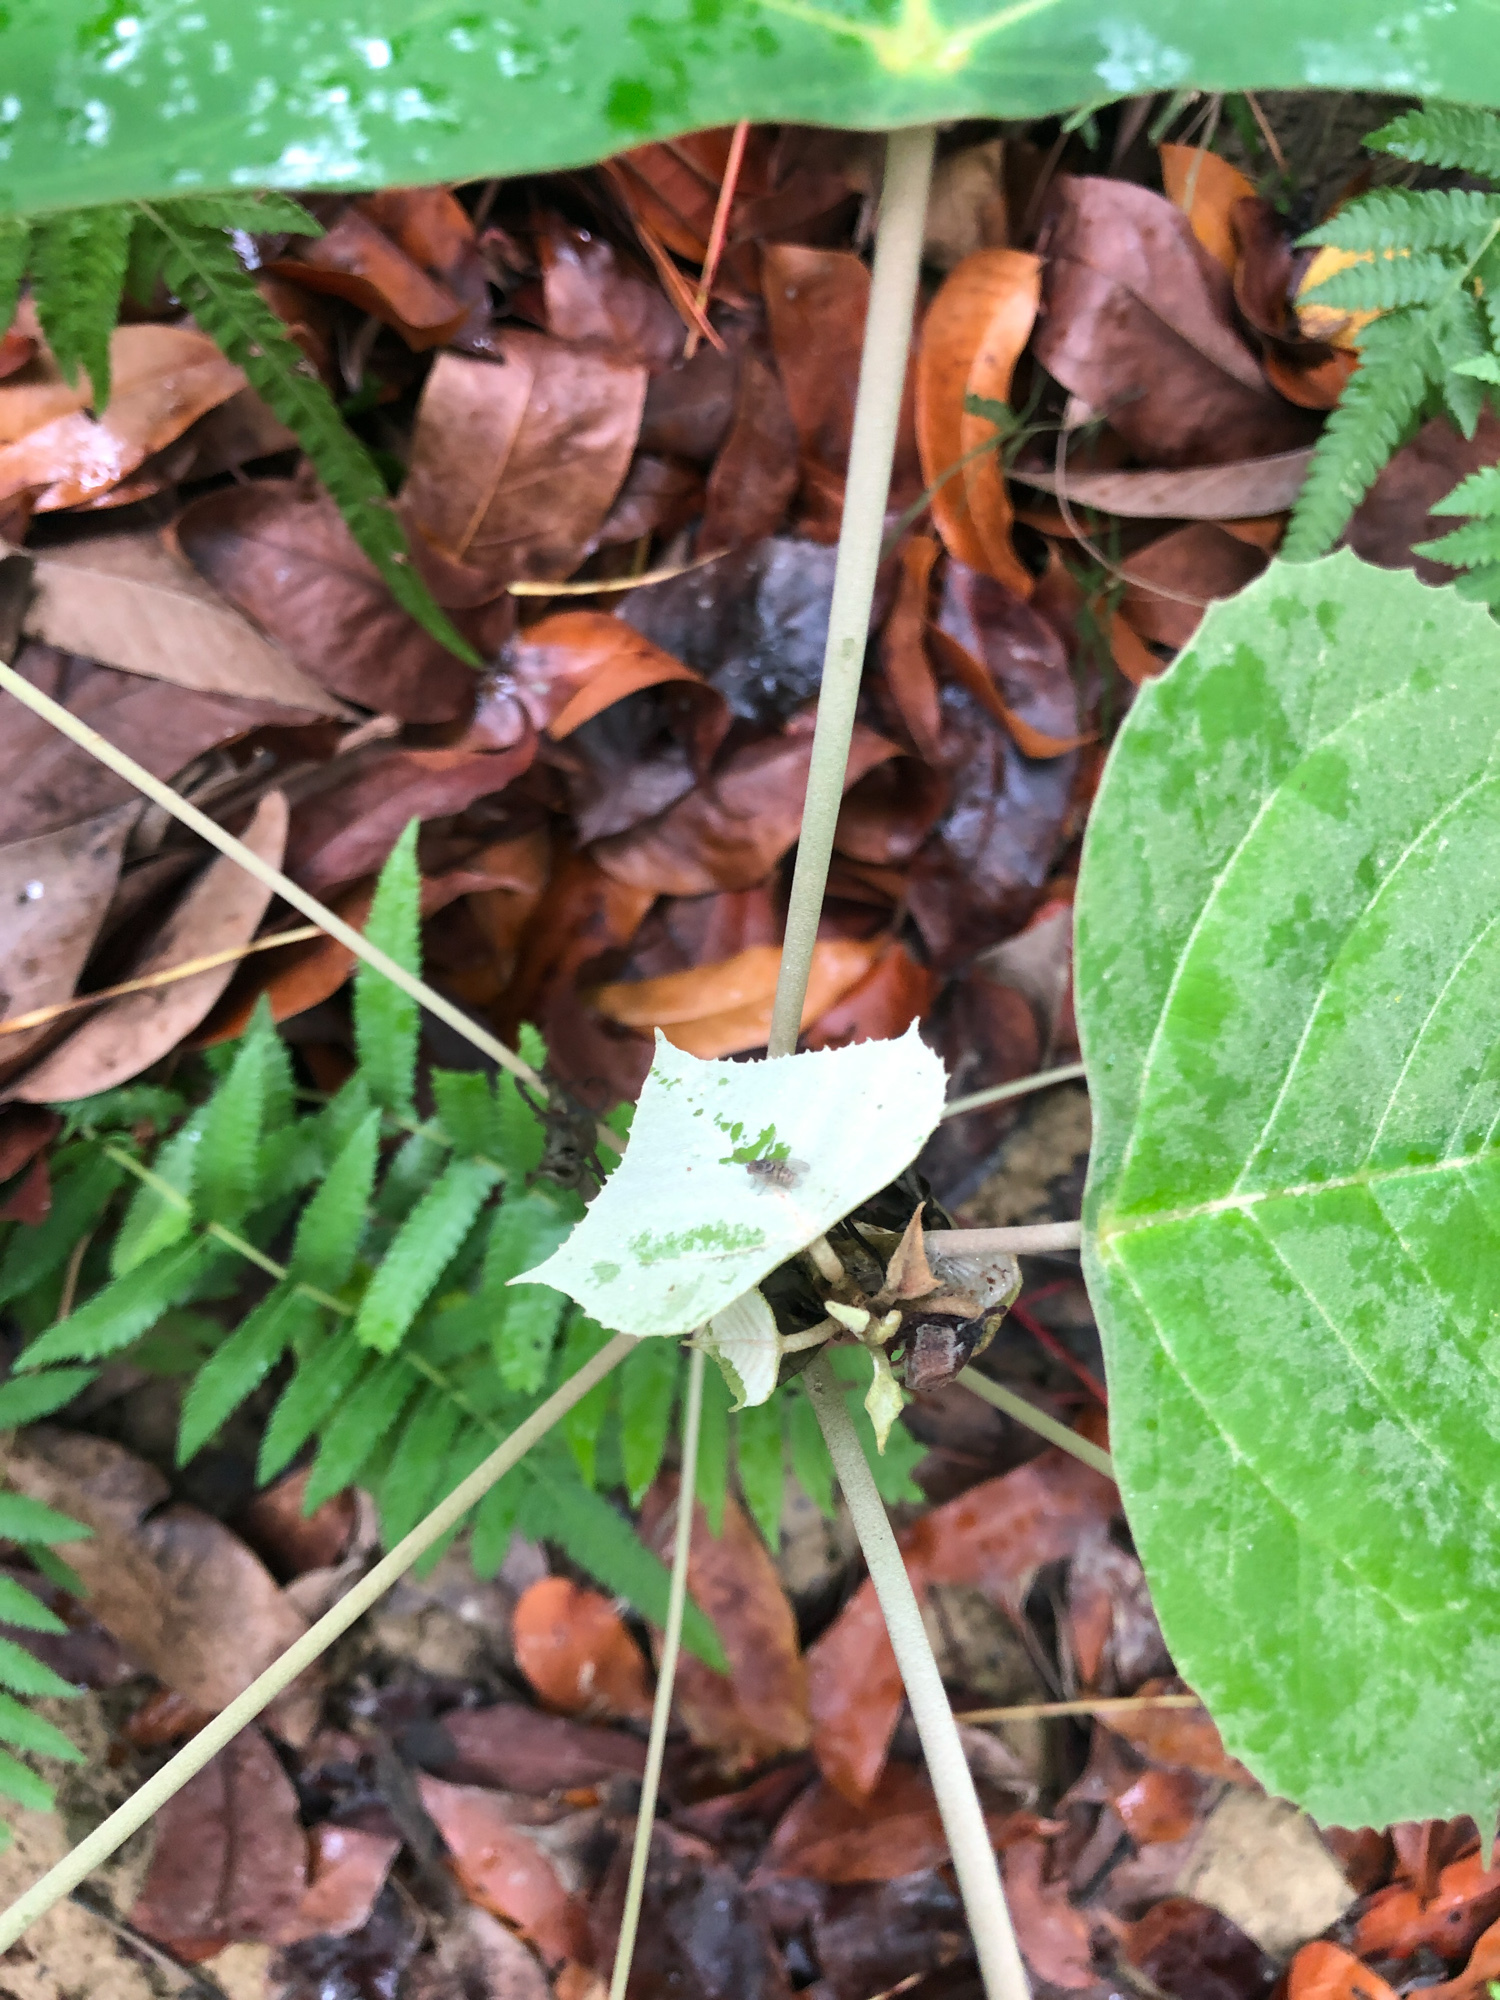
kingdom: Plantae
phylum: Tracheophyta
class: Magnoliopsida
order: Malpighiales
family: Euphorbiaceae
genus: Mallotus
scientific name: Mallotus paniculatus
